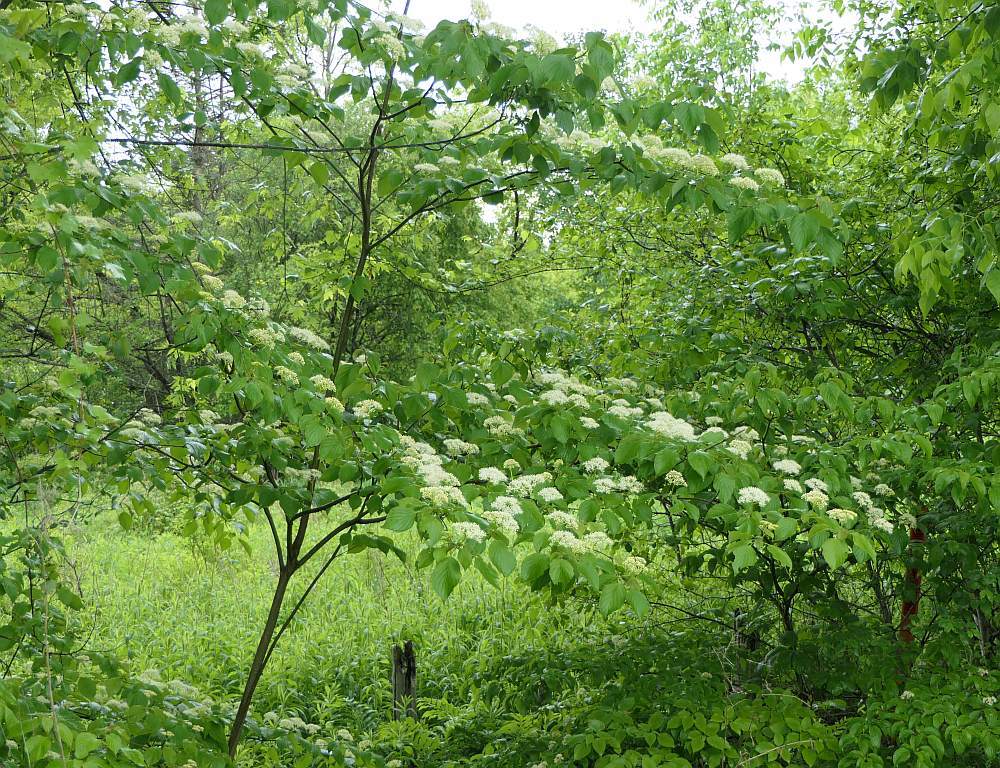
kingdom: Plantae
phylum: Tracheophyta
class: Magnoliopsida
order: Cornales
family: Cornaceae
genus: Cornus
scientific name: Cornus alternifolia
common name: Pagoda dogwood
